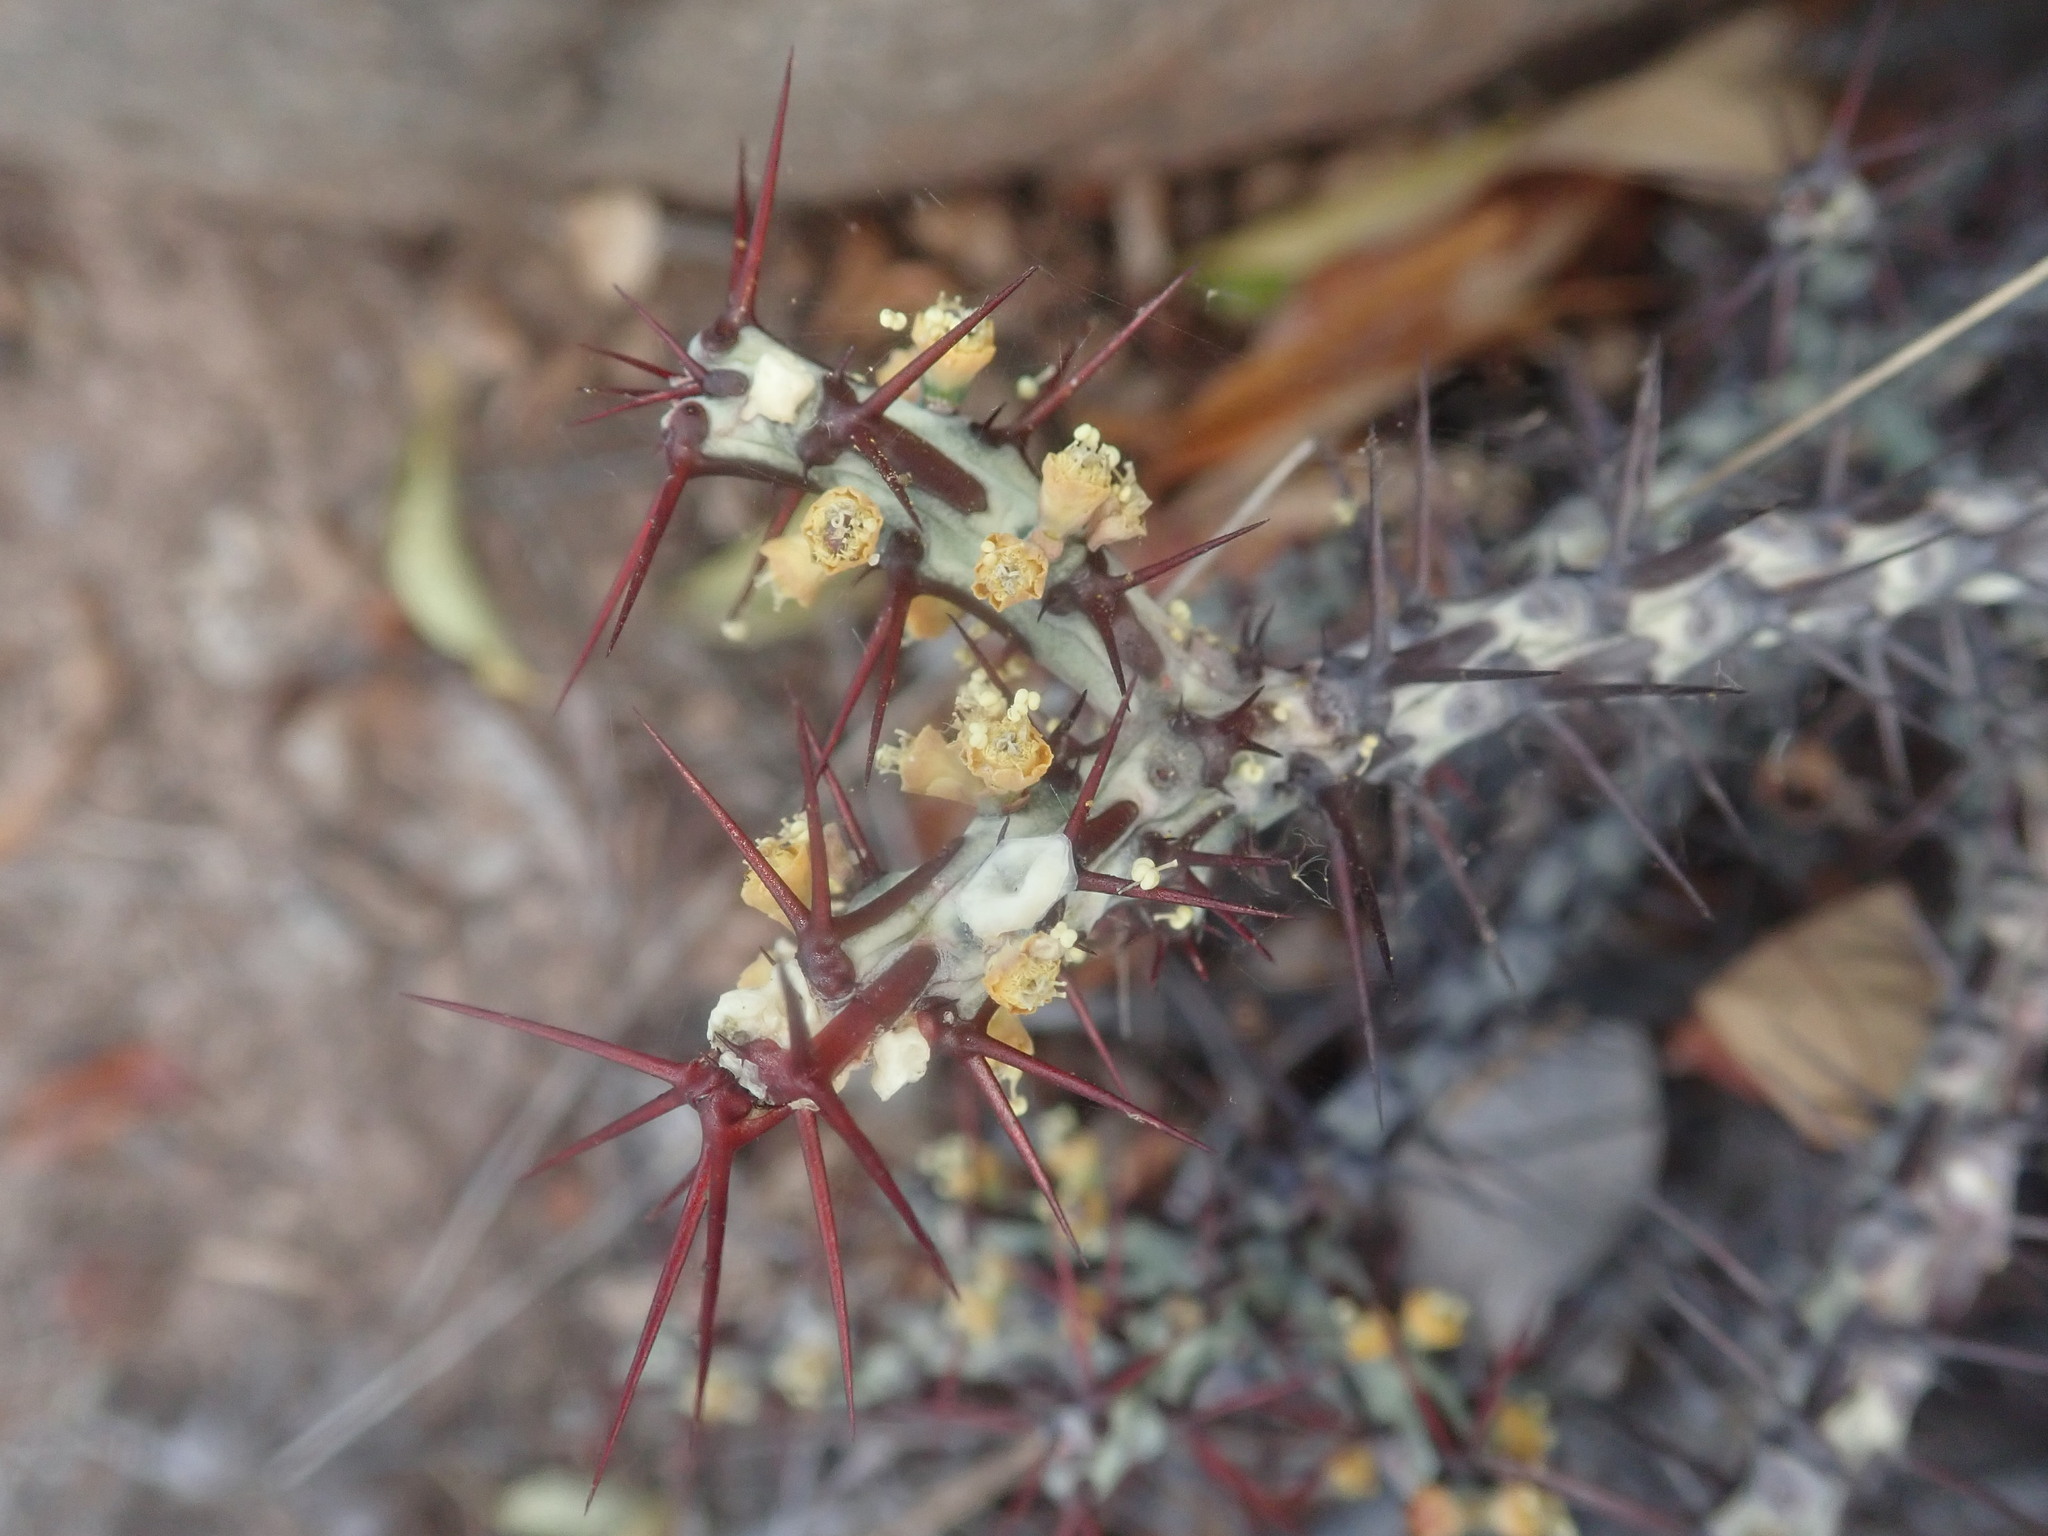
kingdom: Plantae
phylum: Tracheophyta
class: Magnoliopsida
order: Malpighiales
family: Euphorbiaceae
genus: Euphorbia
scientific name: Euphorbia aeruginosa
